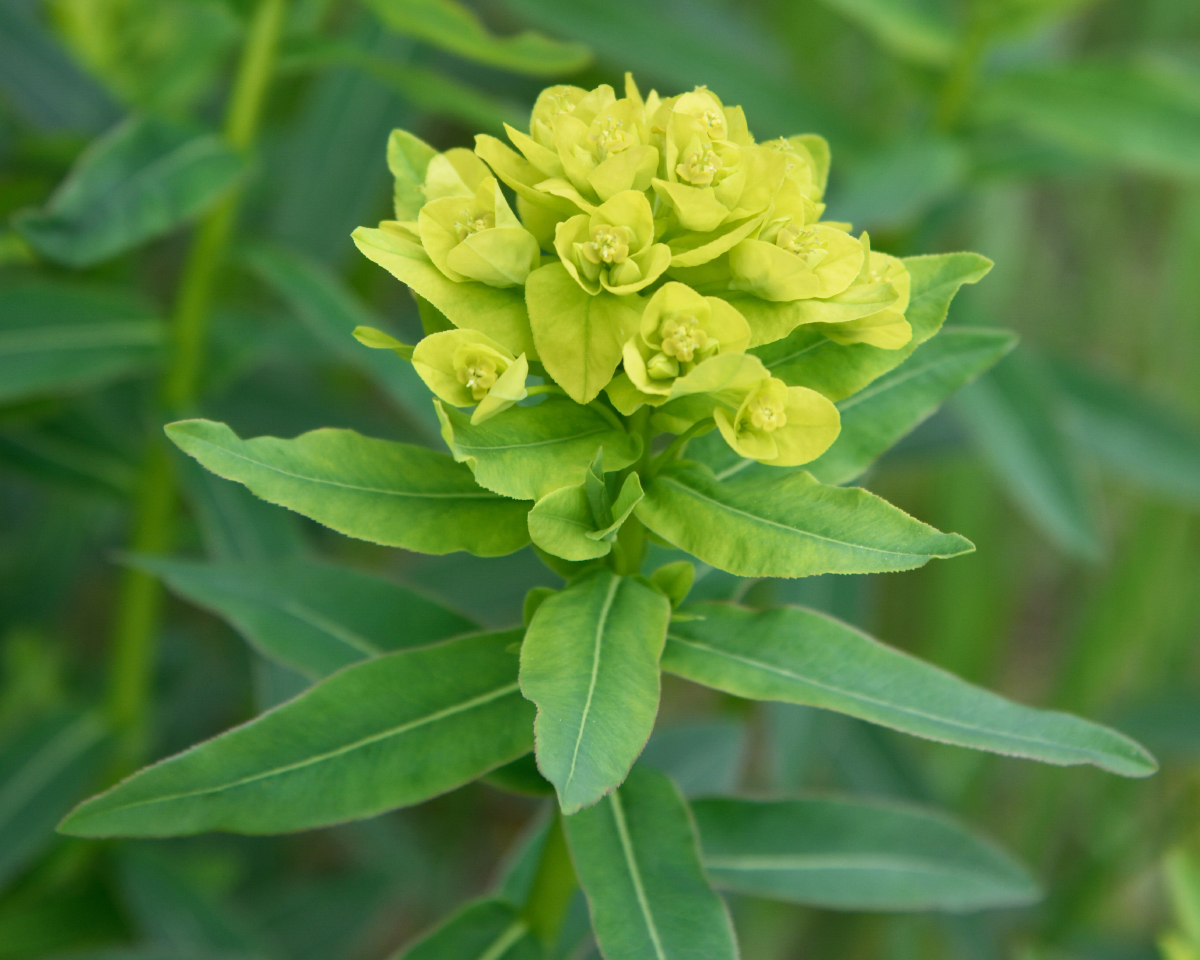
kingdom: Plantae
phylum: Tracheophyta
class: Magnoliopsida
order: Malpighiales
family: Euphorbiaceae
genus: Euphorbia
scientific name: Euphorbia semivillosa
